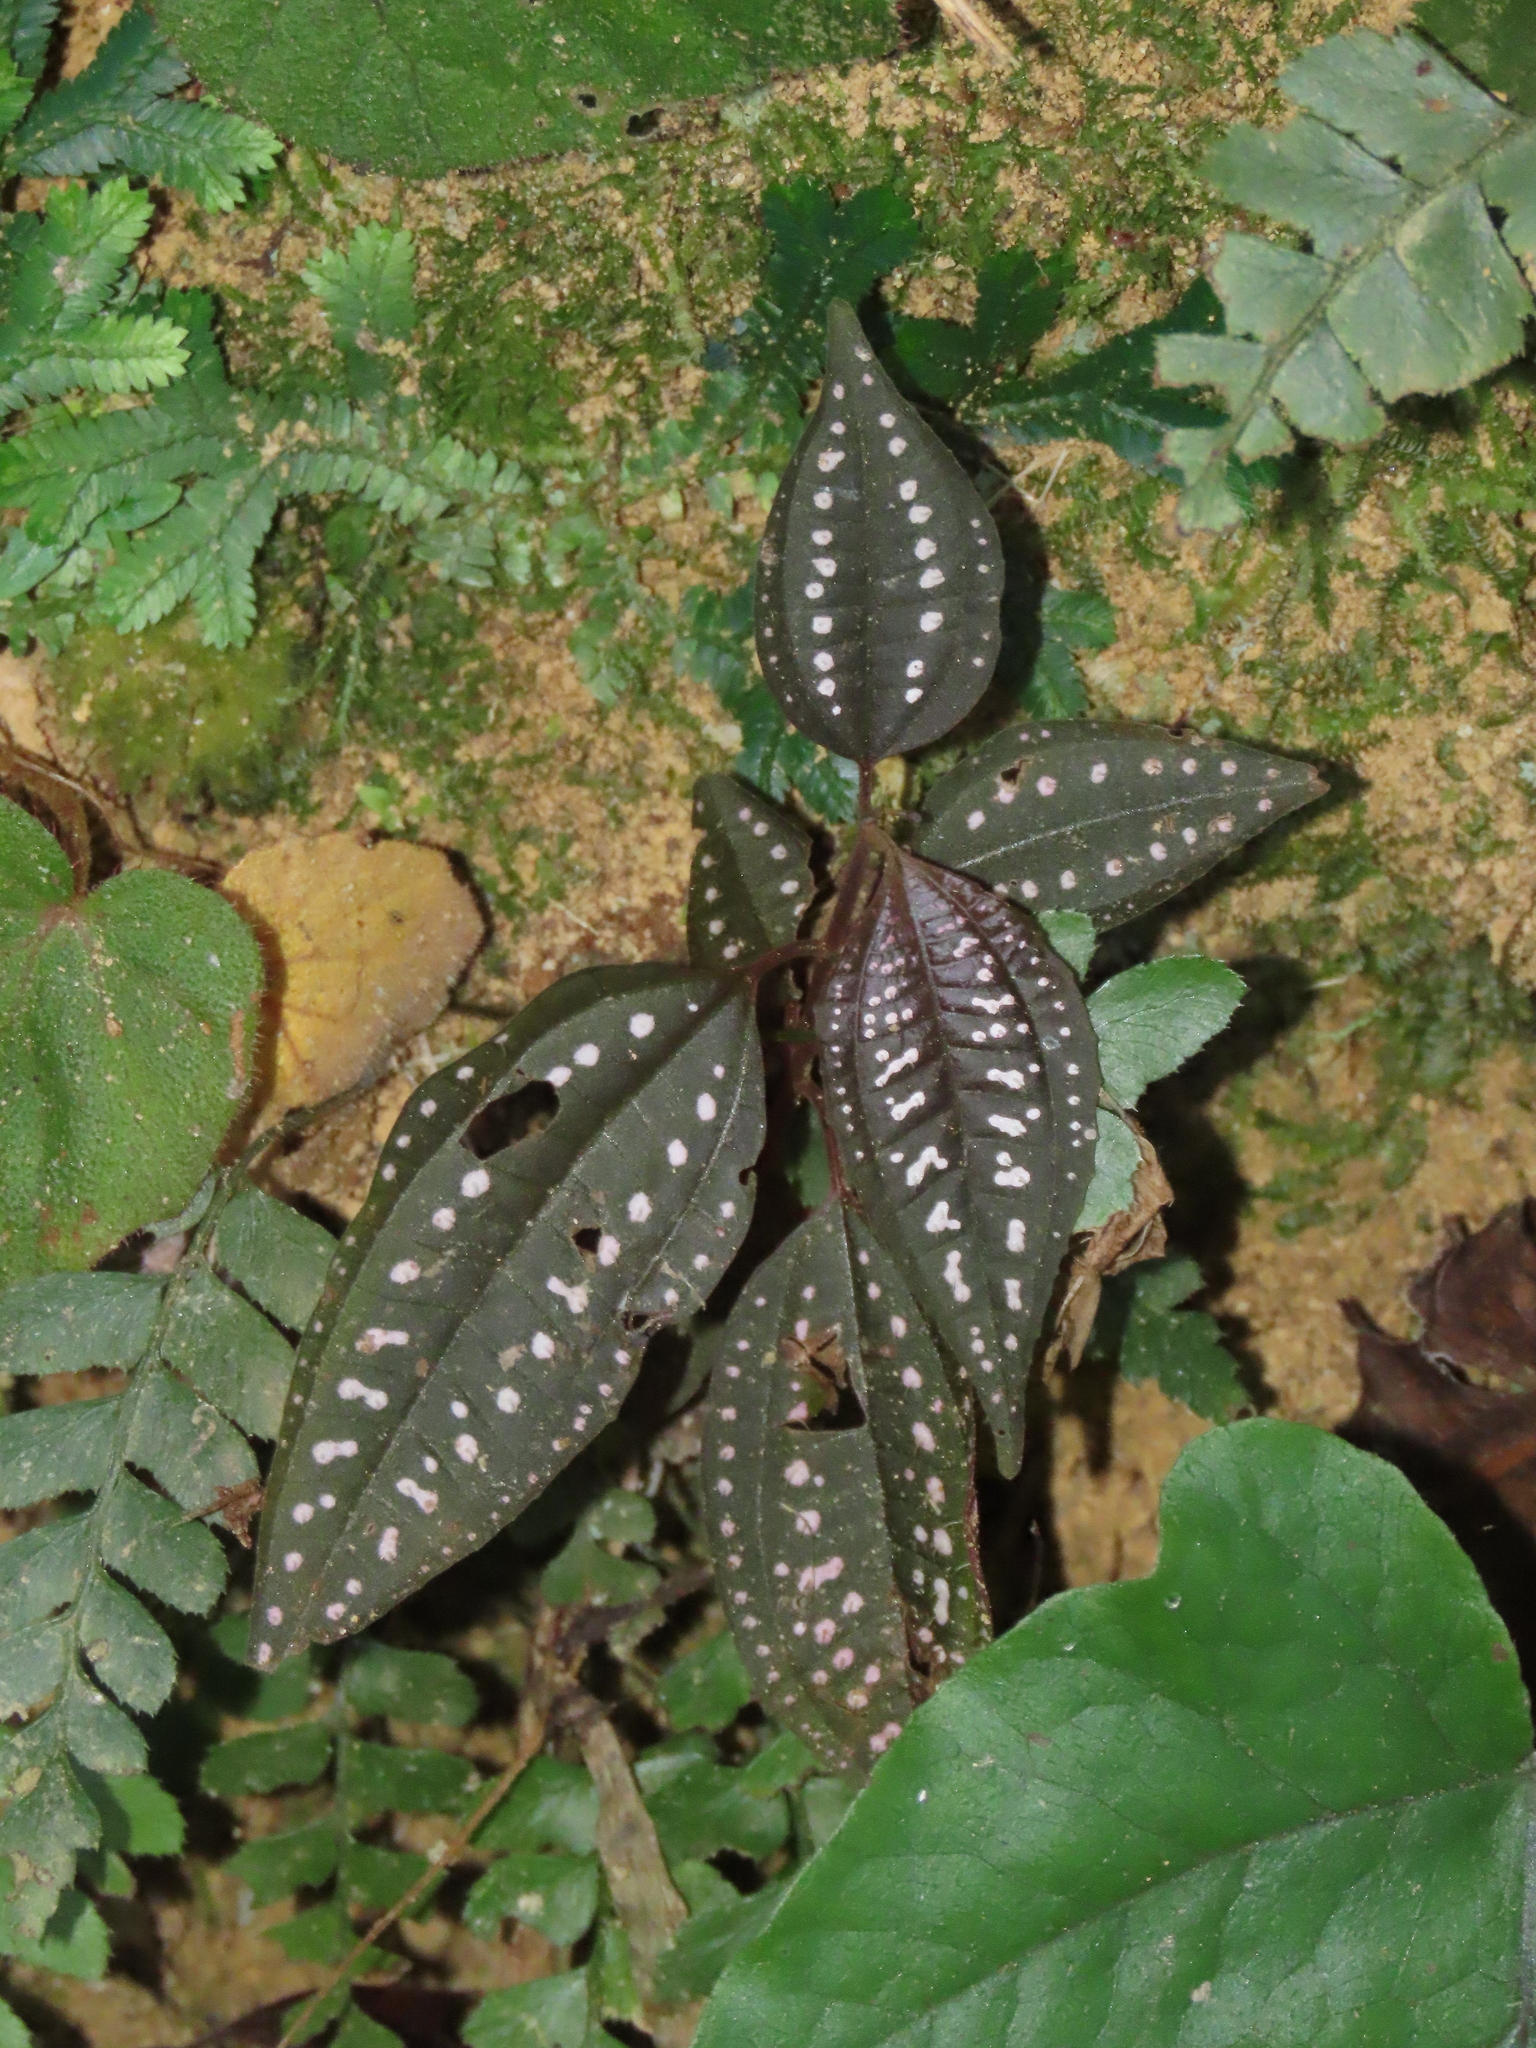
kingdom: Plantae
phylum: Tracheophyta
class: Magnoliopsida
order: Myrtales
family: Melastomataceae
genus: Blastus
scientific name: Blastus cochinchinensis
